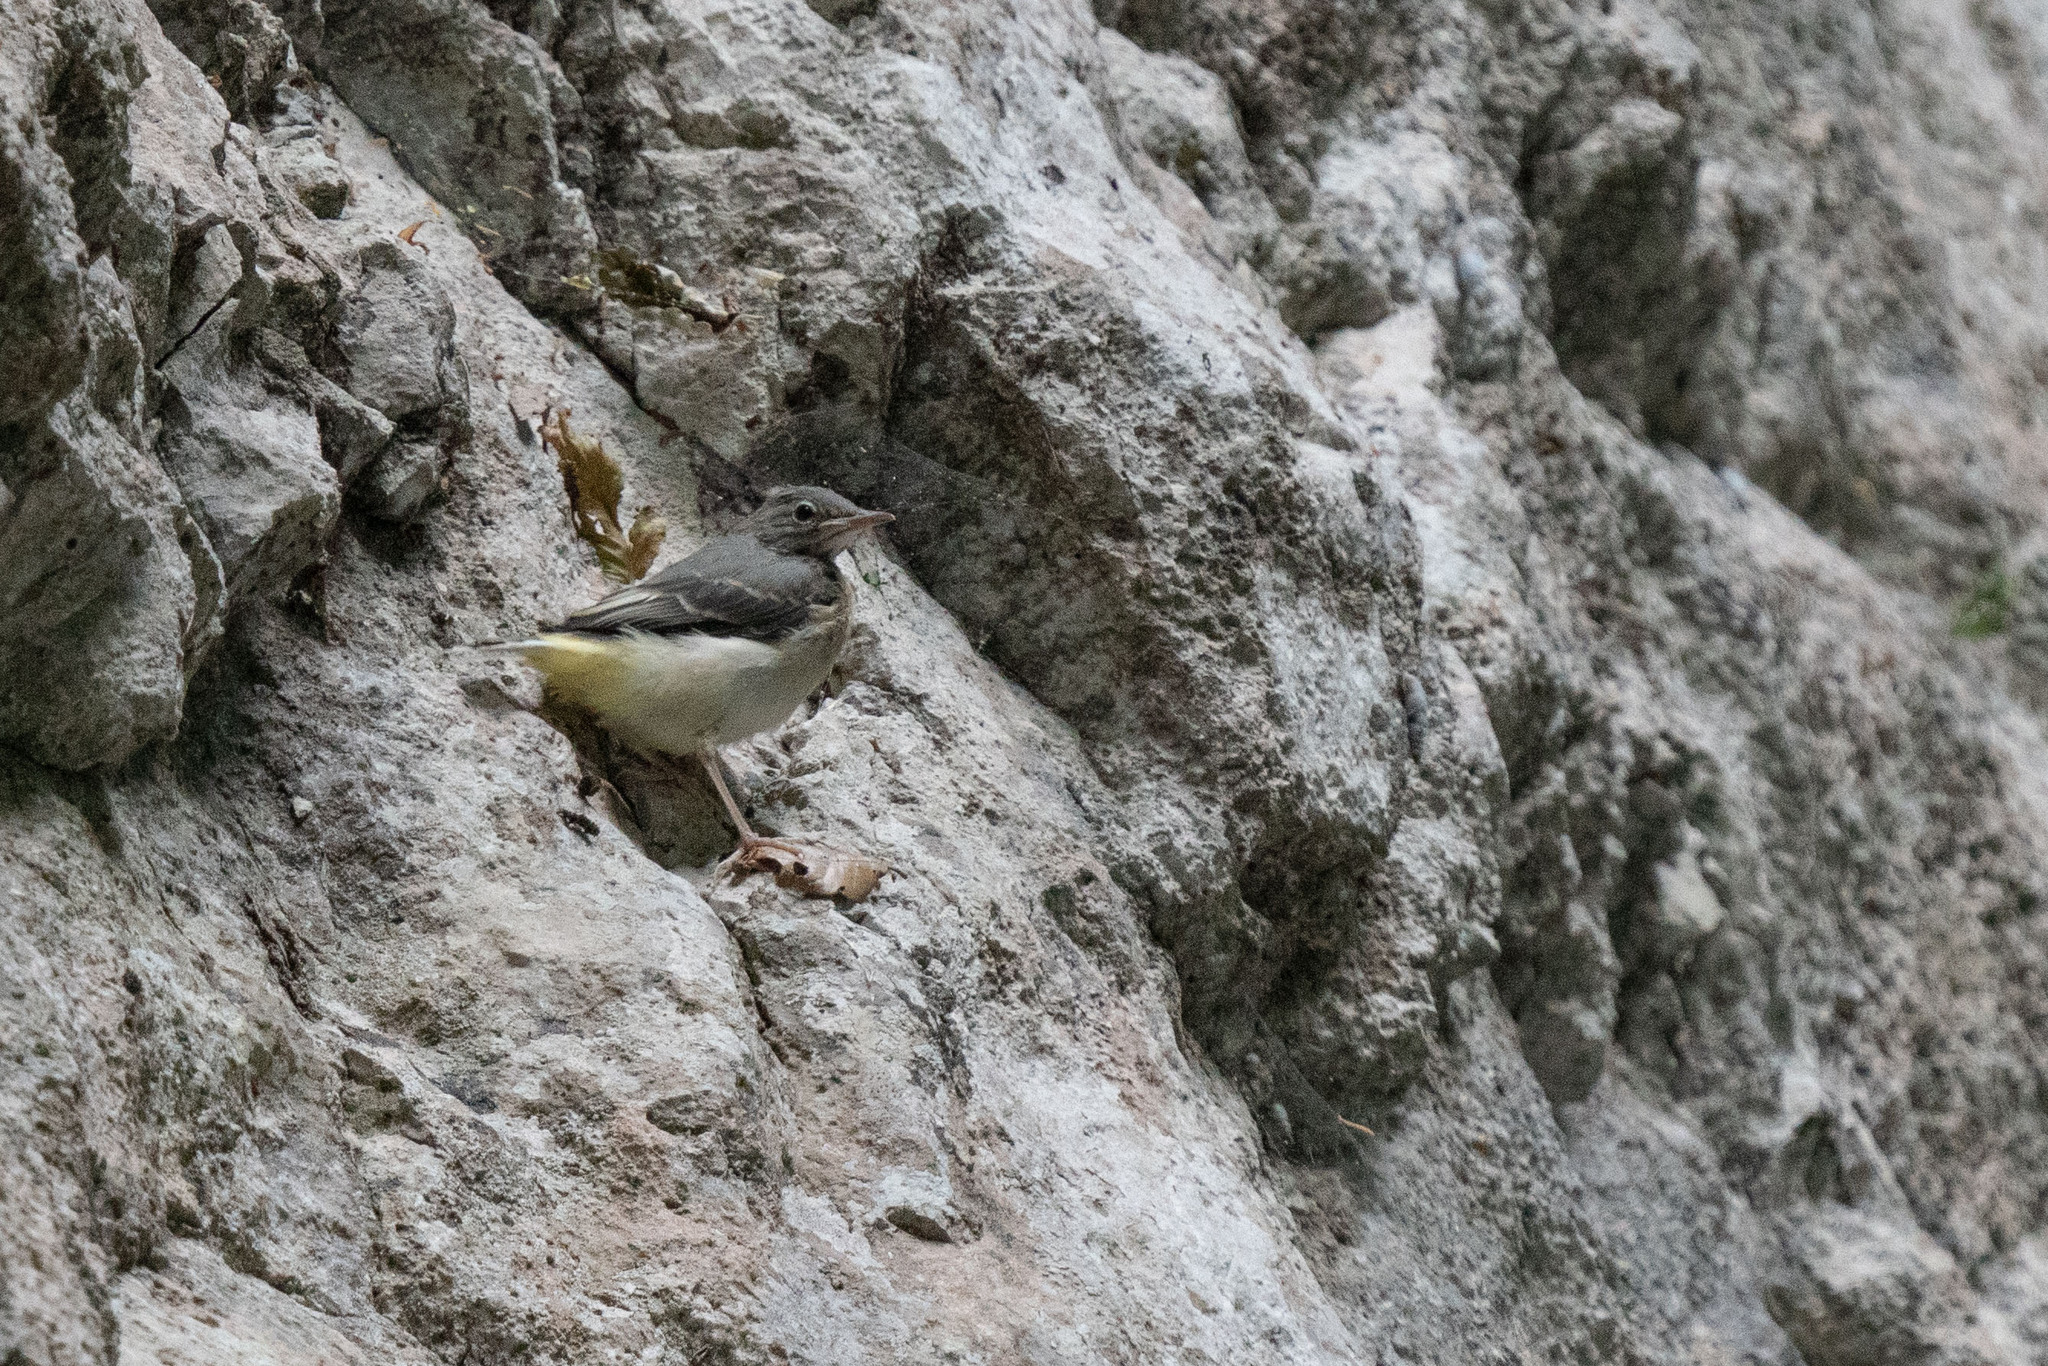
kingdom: Animalia
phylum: Chordata
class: Aves
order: Passeriformes
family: Motacillidae
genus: Motacilla
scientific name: Motacilla cinerea
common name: Grey wagtail
